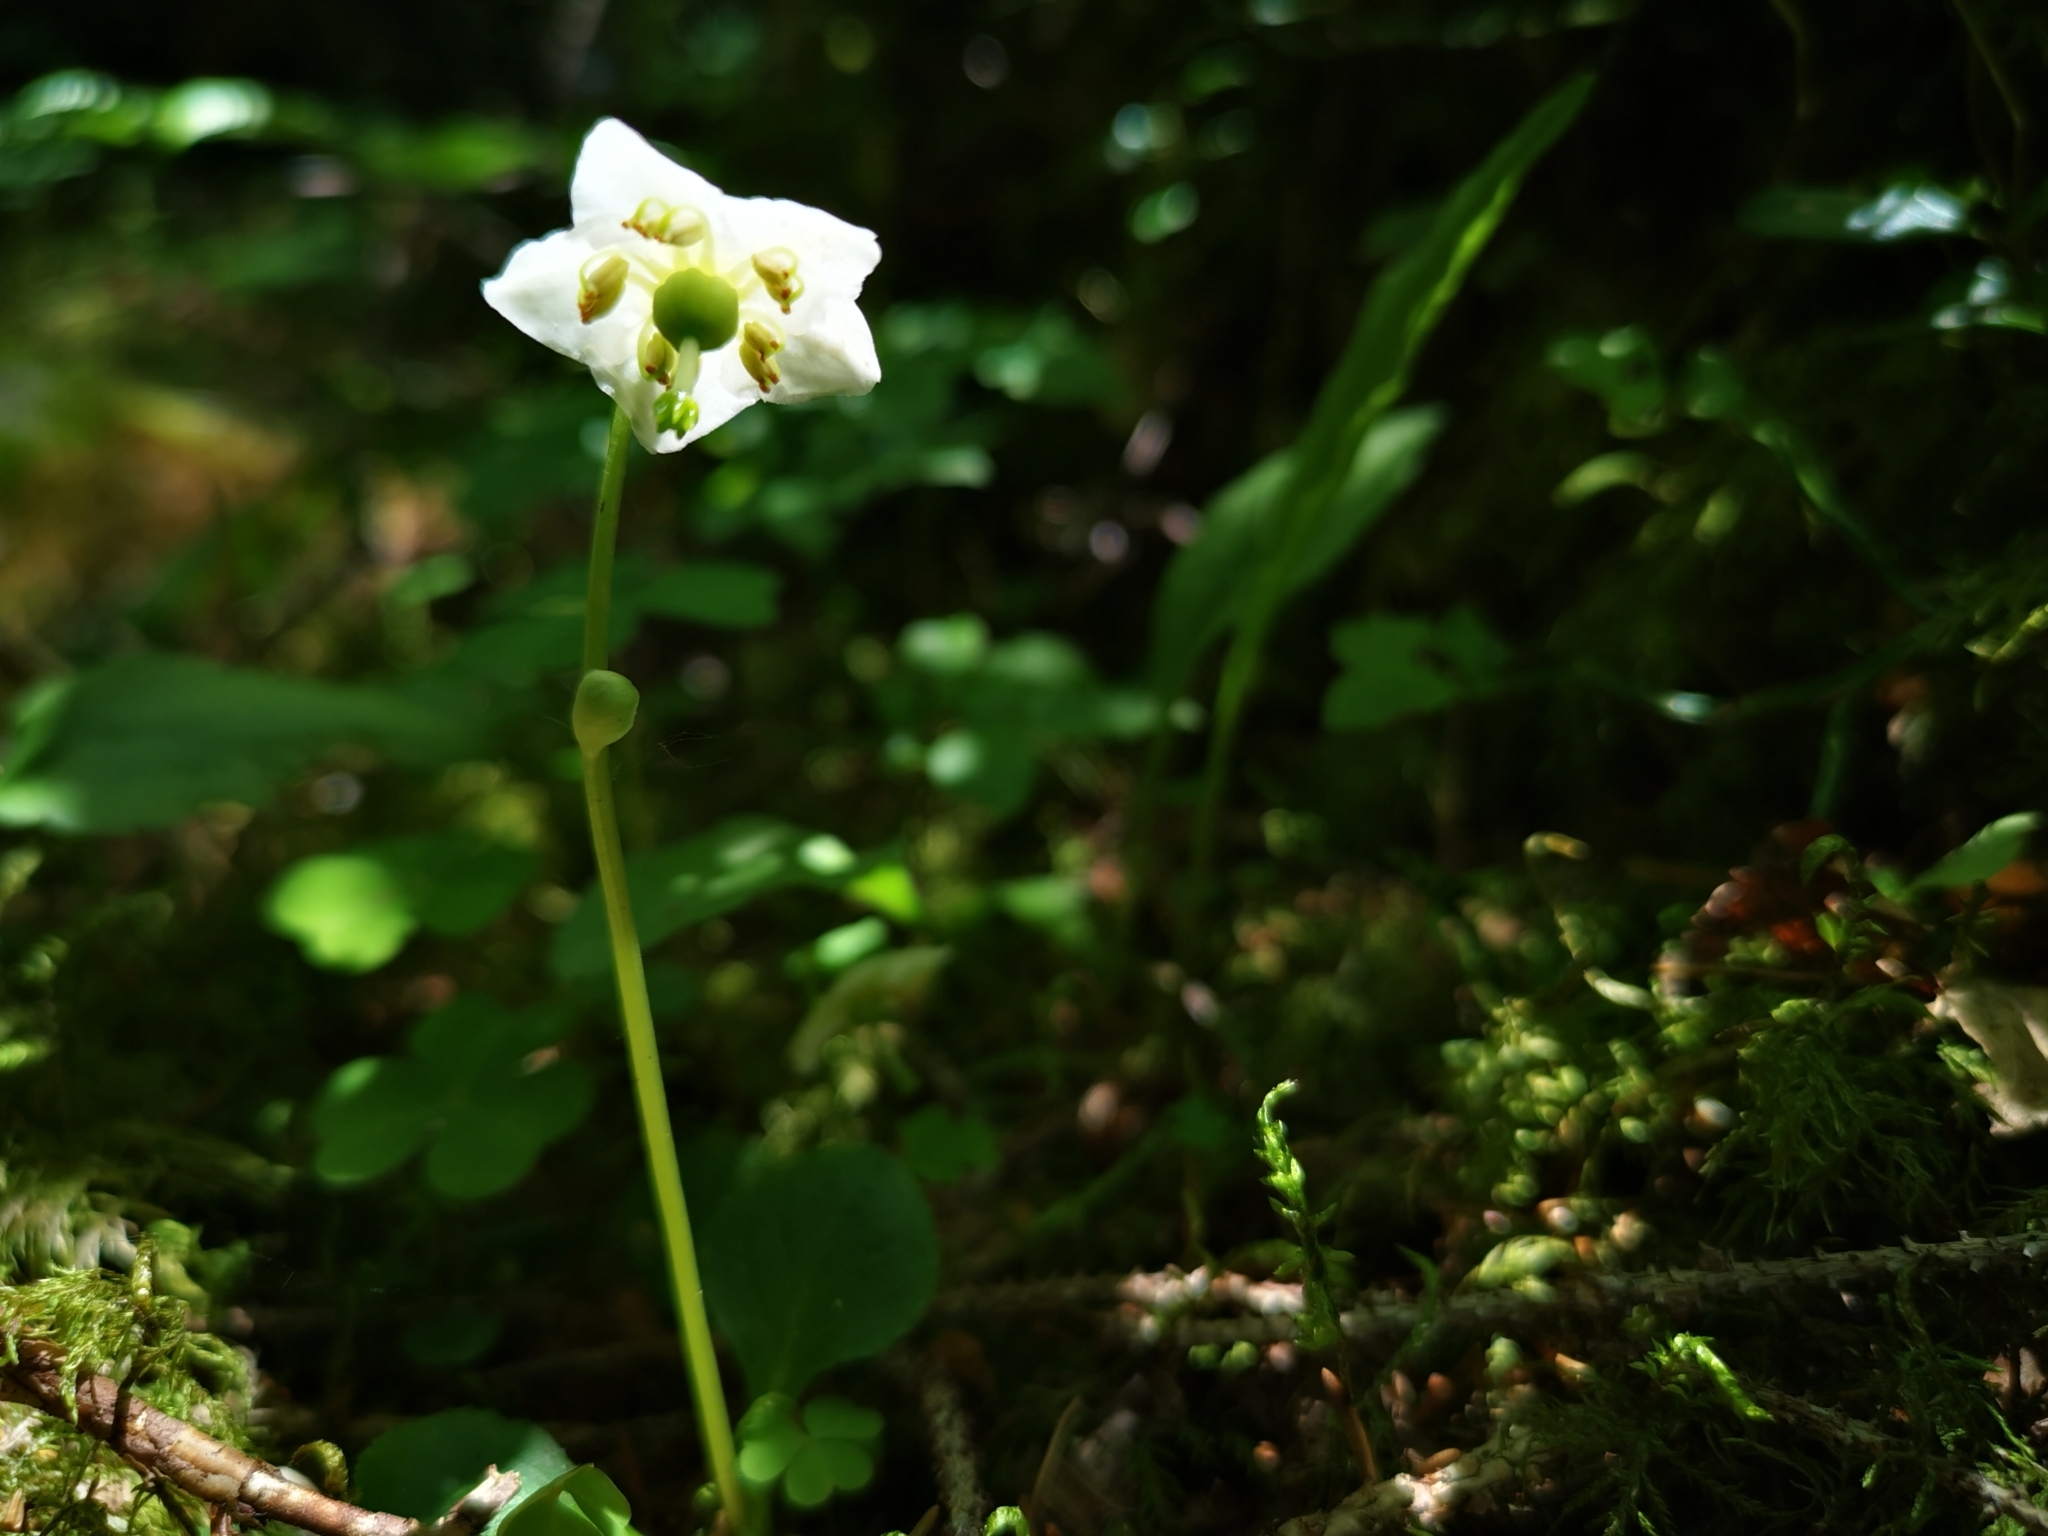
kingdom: Plantae
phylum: Tracheophyta
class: Magnoliopsida
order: Ericales
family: Ericaceae
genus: Moneses
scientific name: Moneses uniflora
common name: One-flowered wintergreen
